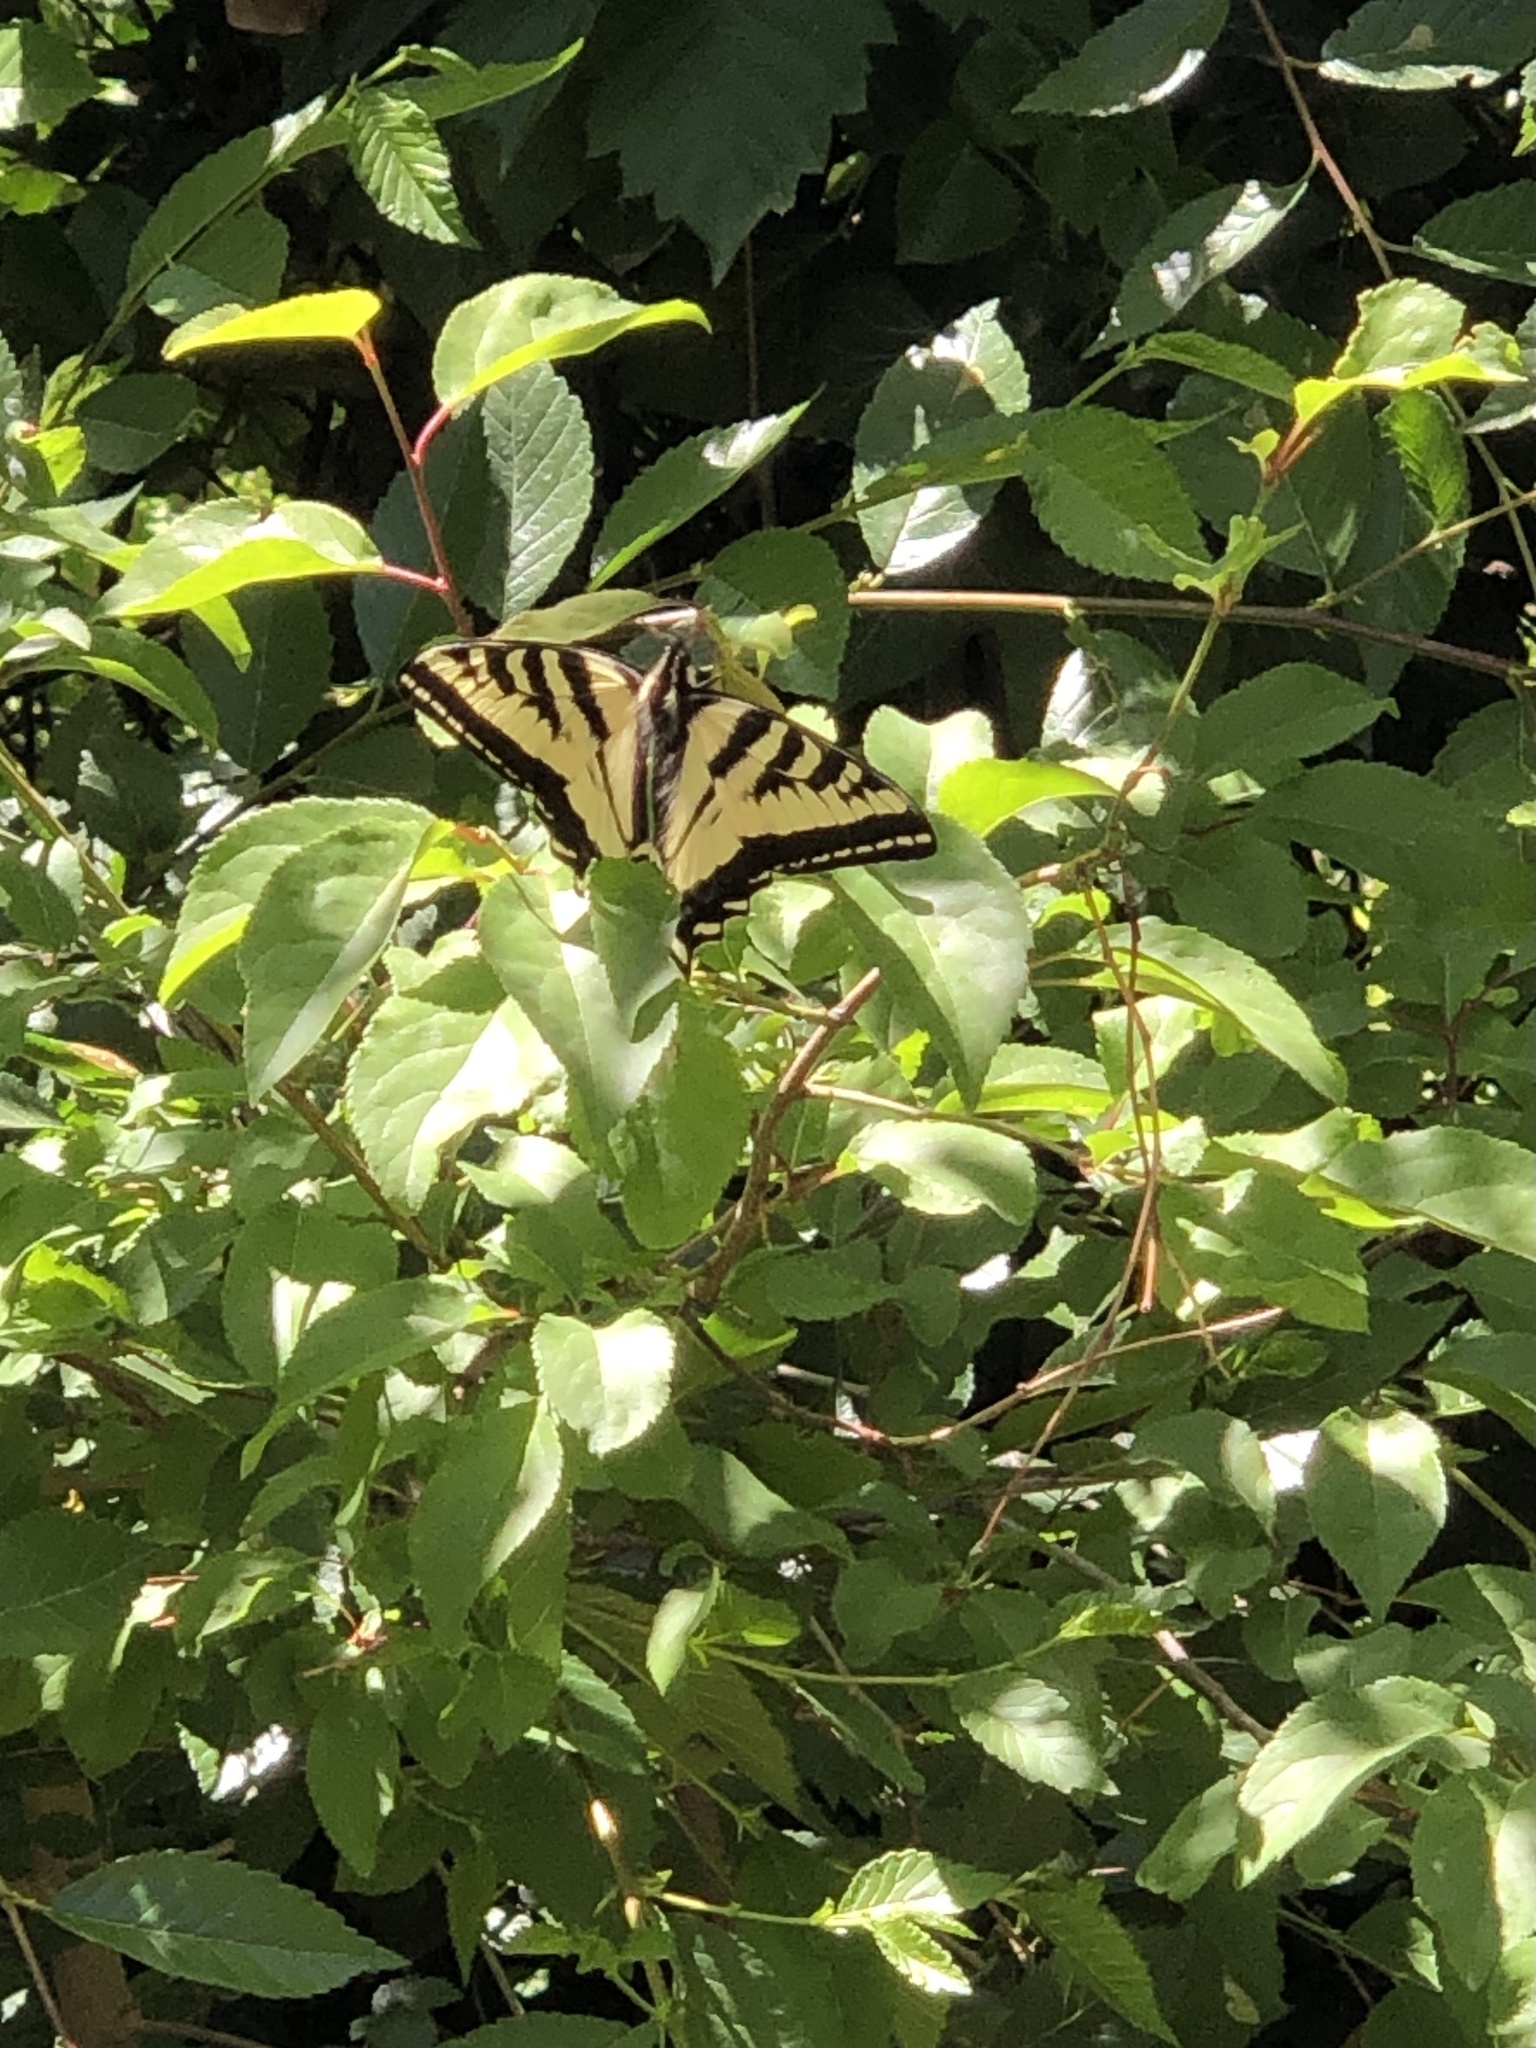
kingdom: Animalia
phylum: Arthropoda
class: Insecta
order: Lepidoptera
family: Papilionidae
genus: Papilio
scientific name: Papilio rutulus
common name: Western tiger swallowtail
